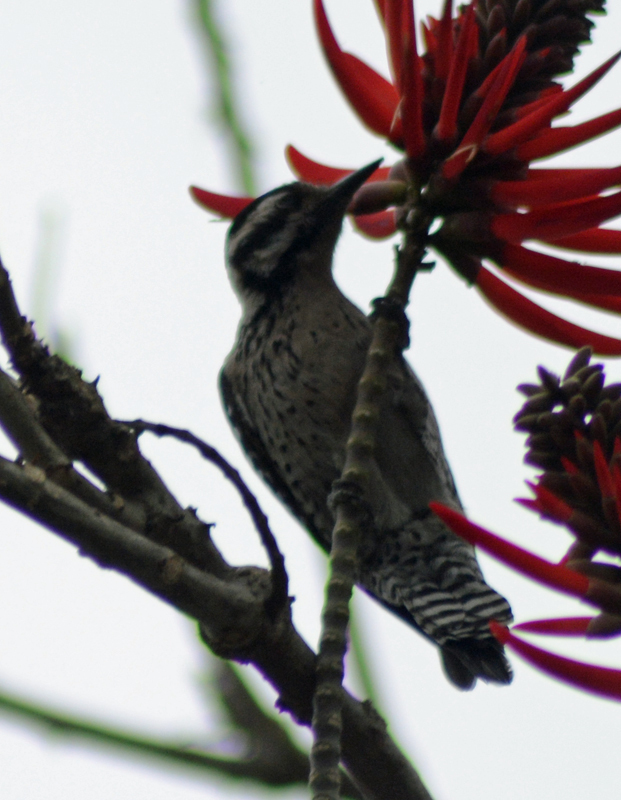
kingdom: Animalia
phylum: Chordata
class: Aves
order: Piciformes
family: Picidae
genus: Dryobates
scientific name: Dryobates scalaris
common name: Ladder-backed woodpecker
